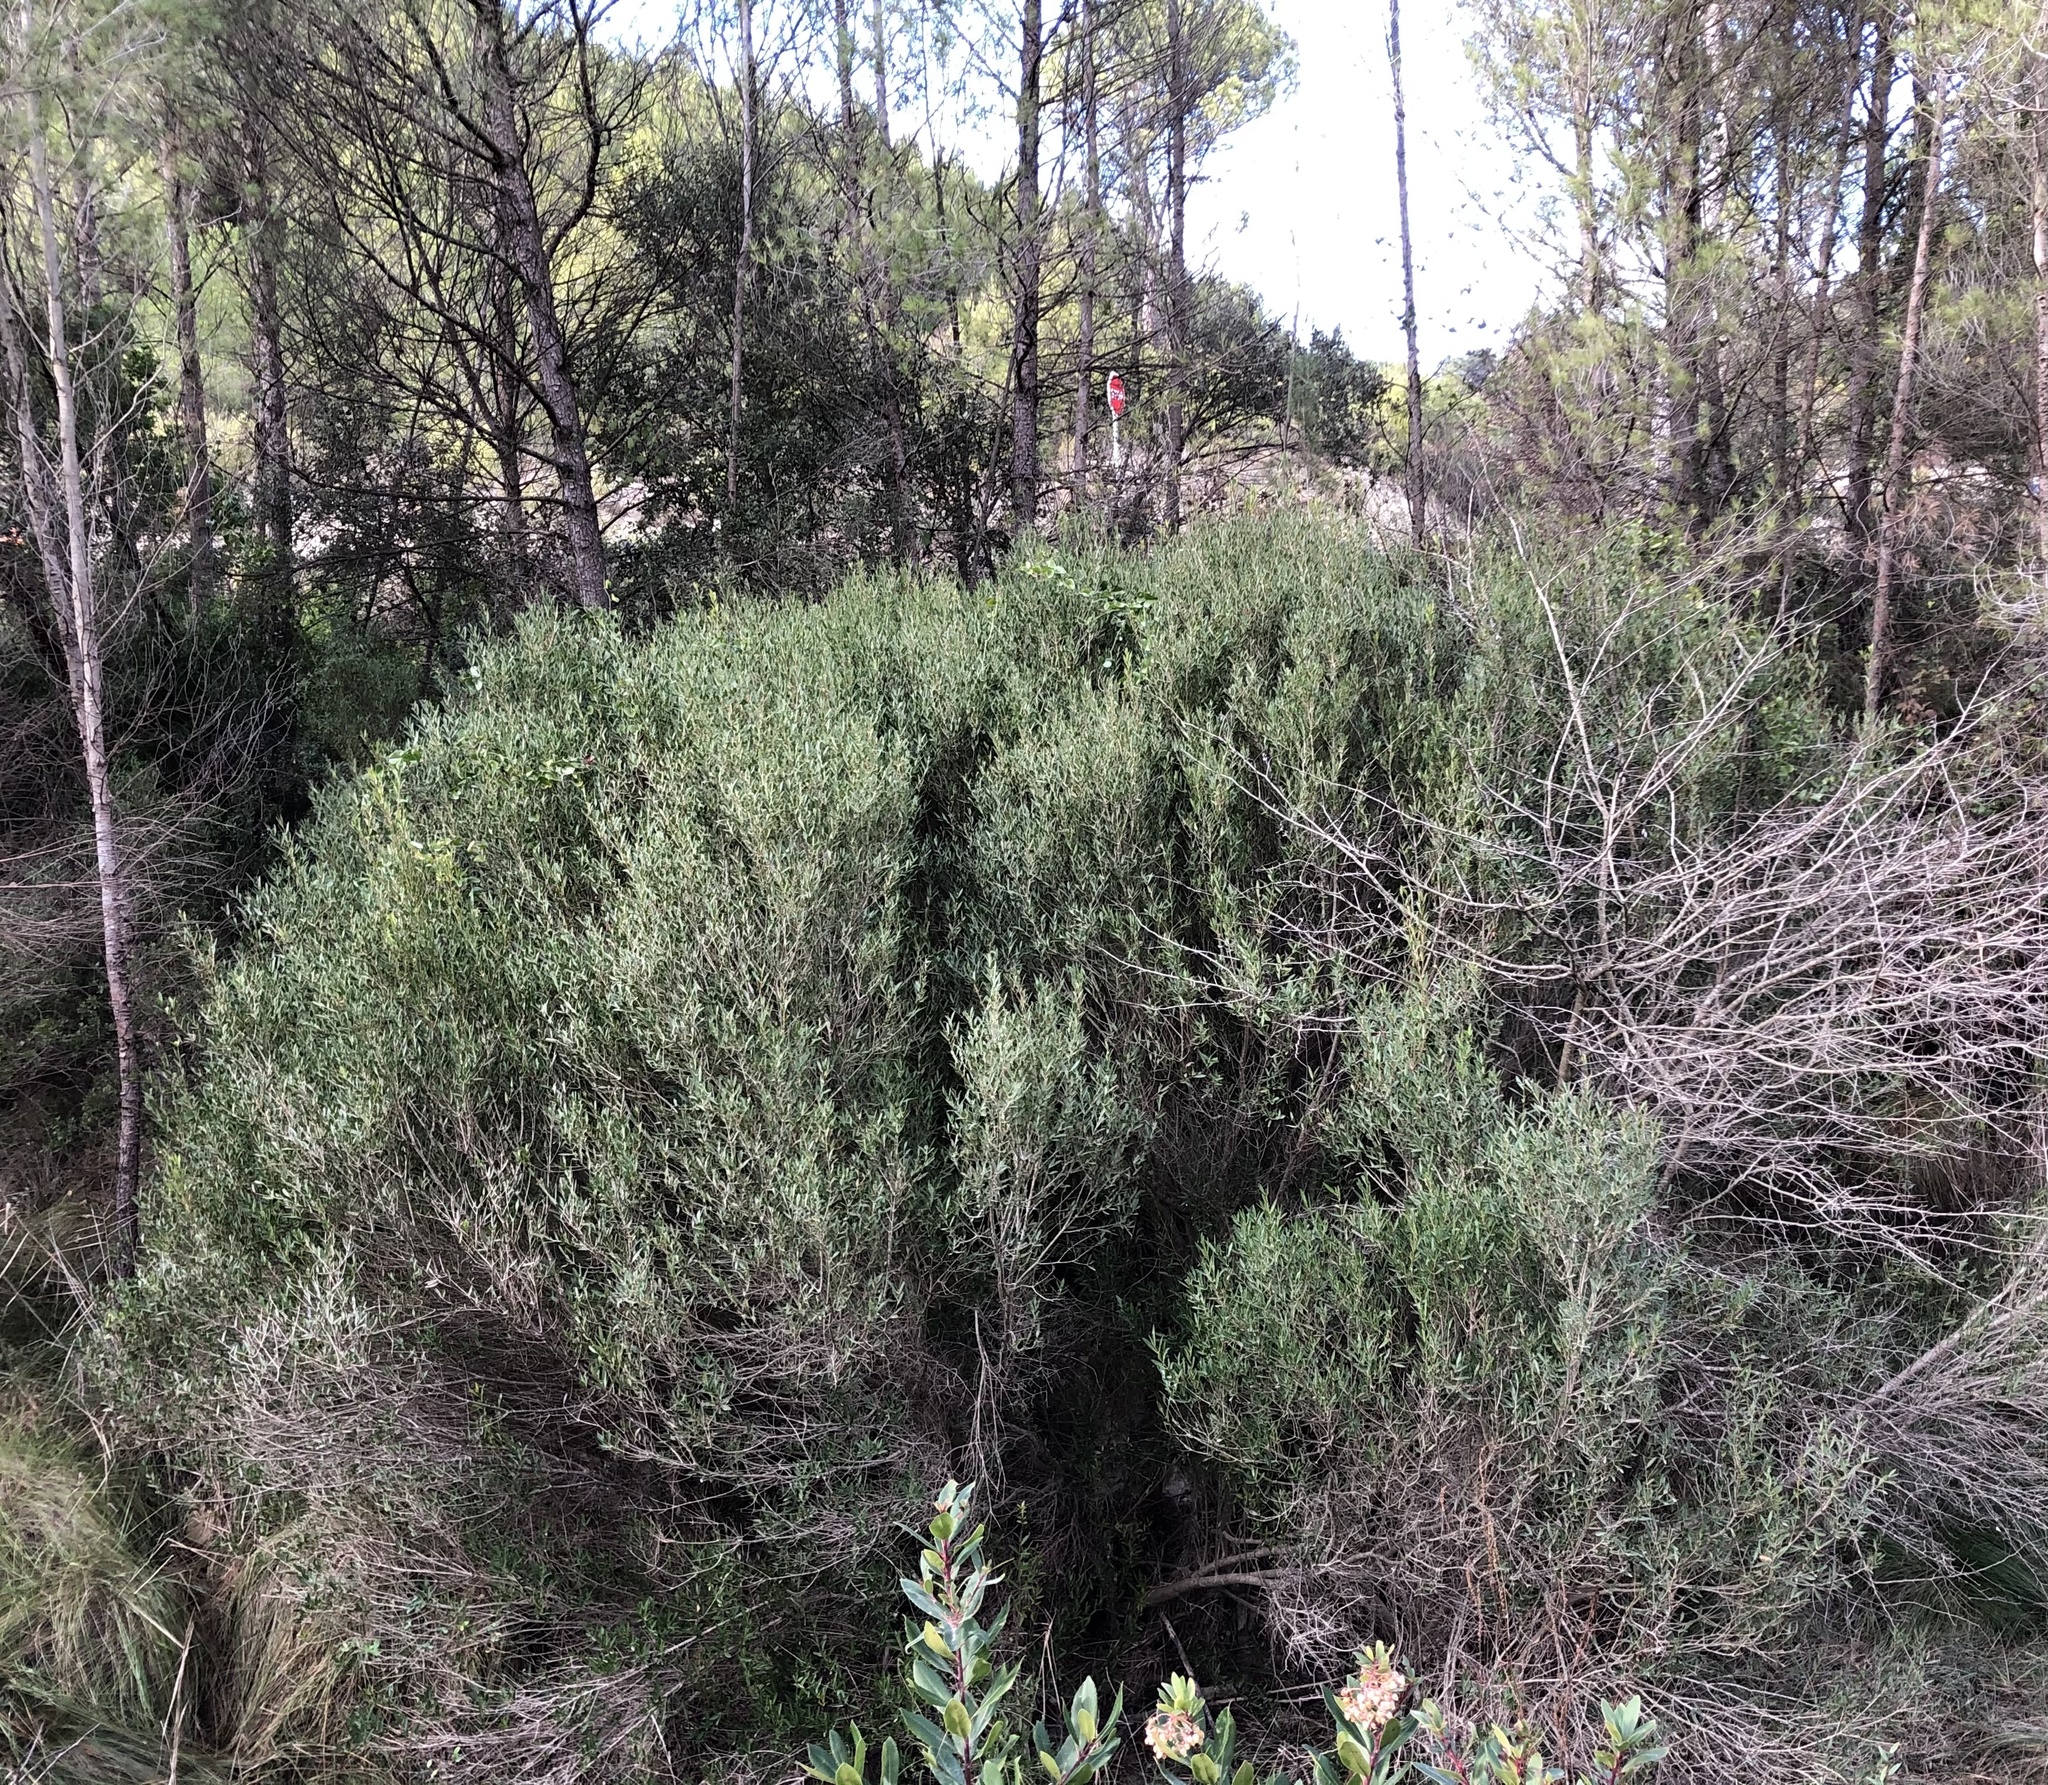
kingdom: Plantae
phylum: Tracheophyta
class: Magnoliopsida
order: Lamiales
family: Oleaceae
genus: Phillyrea
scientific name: Phillyrea angustifolia
